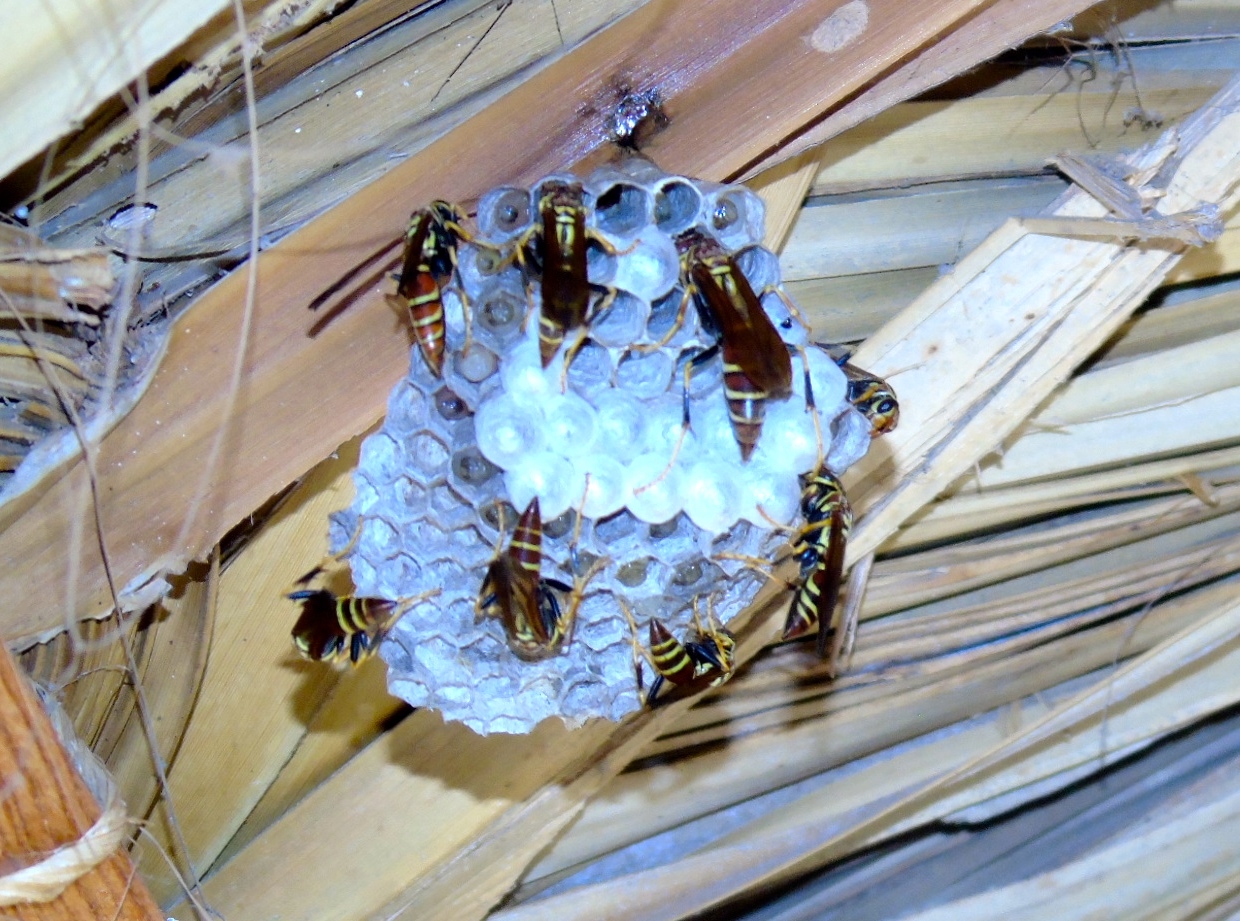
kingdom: Animalia
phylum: Arthropoda
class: Insecta
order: Hymenoptera
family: Eumenidae
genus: Polistes
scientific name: Polistes instabilis
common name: Unstable paper wasp
